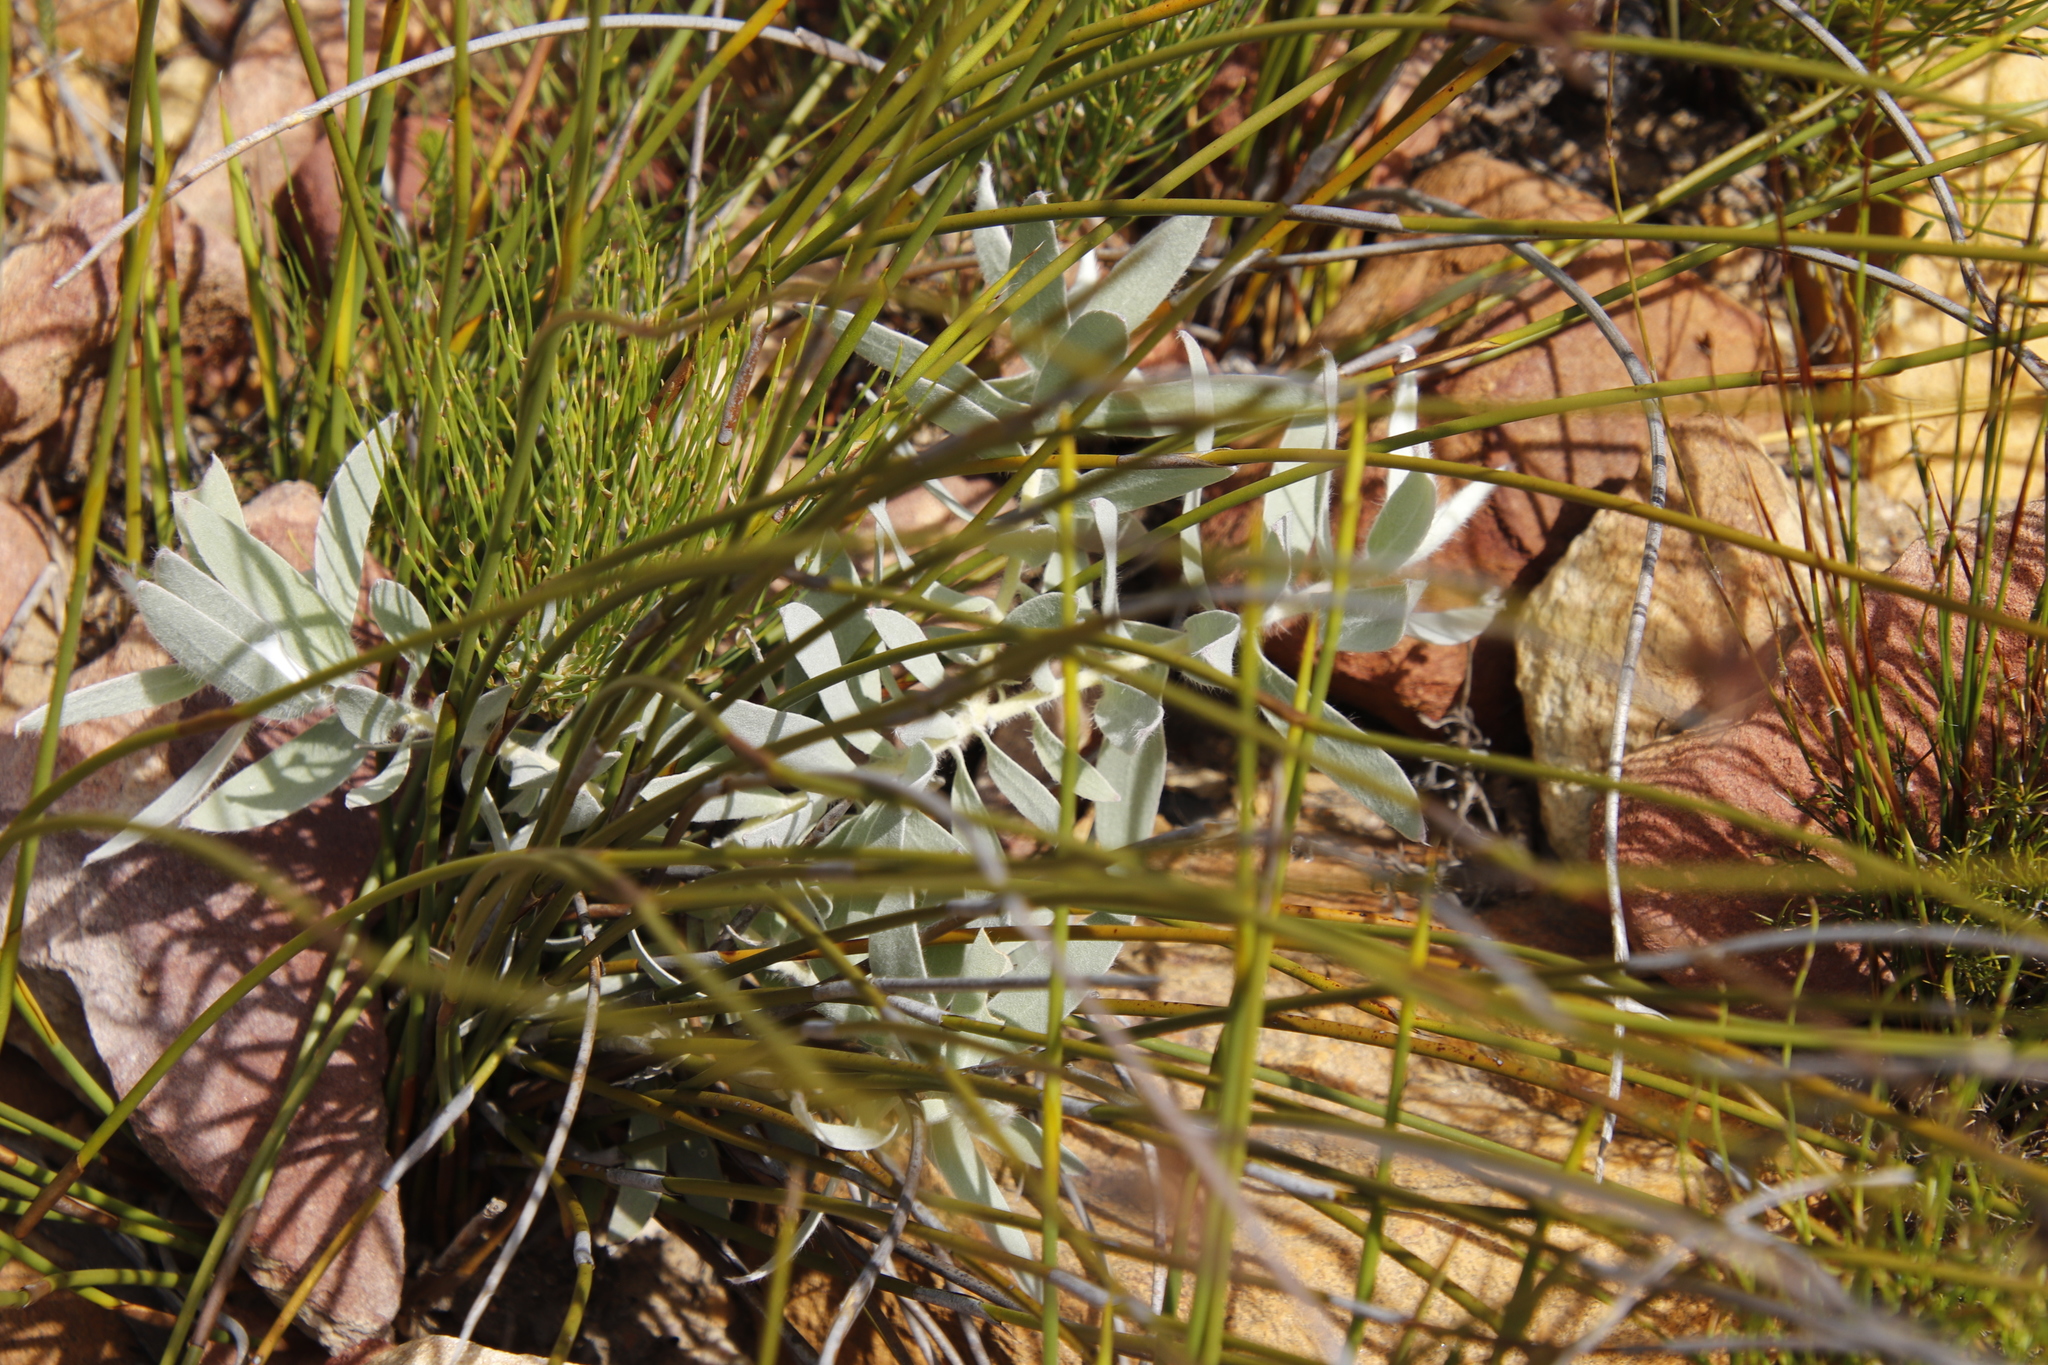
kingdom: Plantae
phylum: Tracheophyta
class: Magnoliopsida
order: Proteales
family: Proteaceae
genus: Leucospermum
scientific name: Leucospermum cordatum
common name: Heart-leaf pincushion
